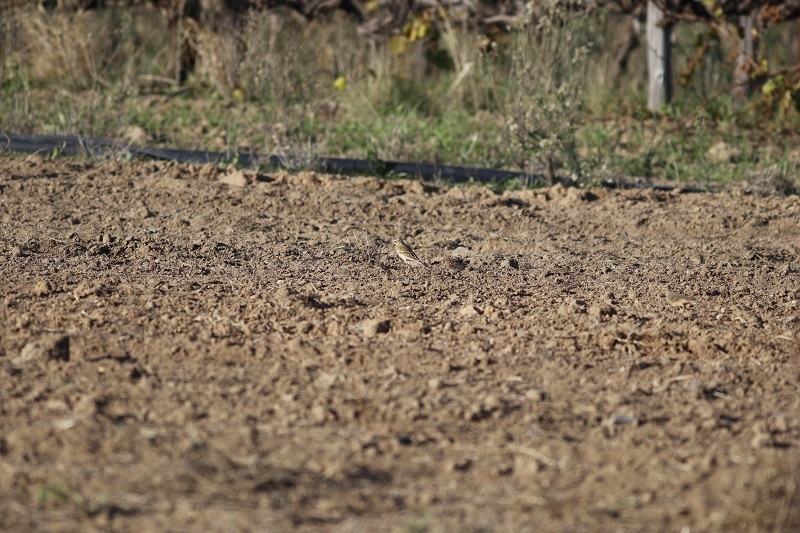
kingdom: Animalia
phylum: Chordata
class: Aves
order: Passeriformes
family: Motacillidae
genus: Anthus
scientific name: Anthus cinnamomeus
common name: African pipit
